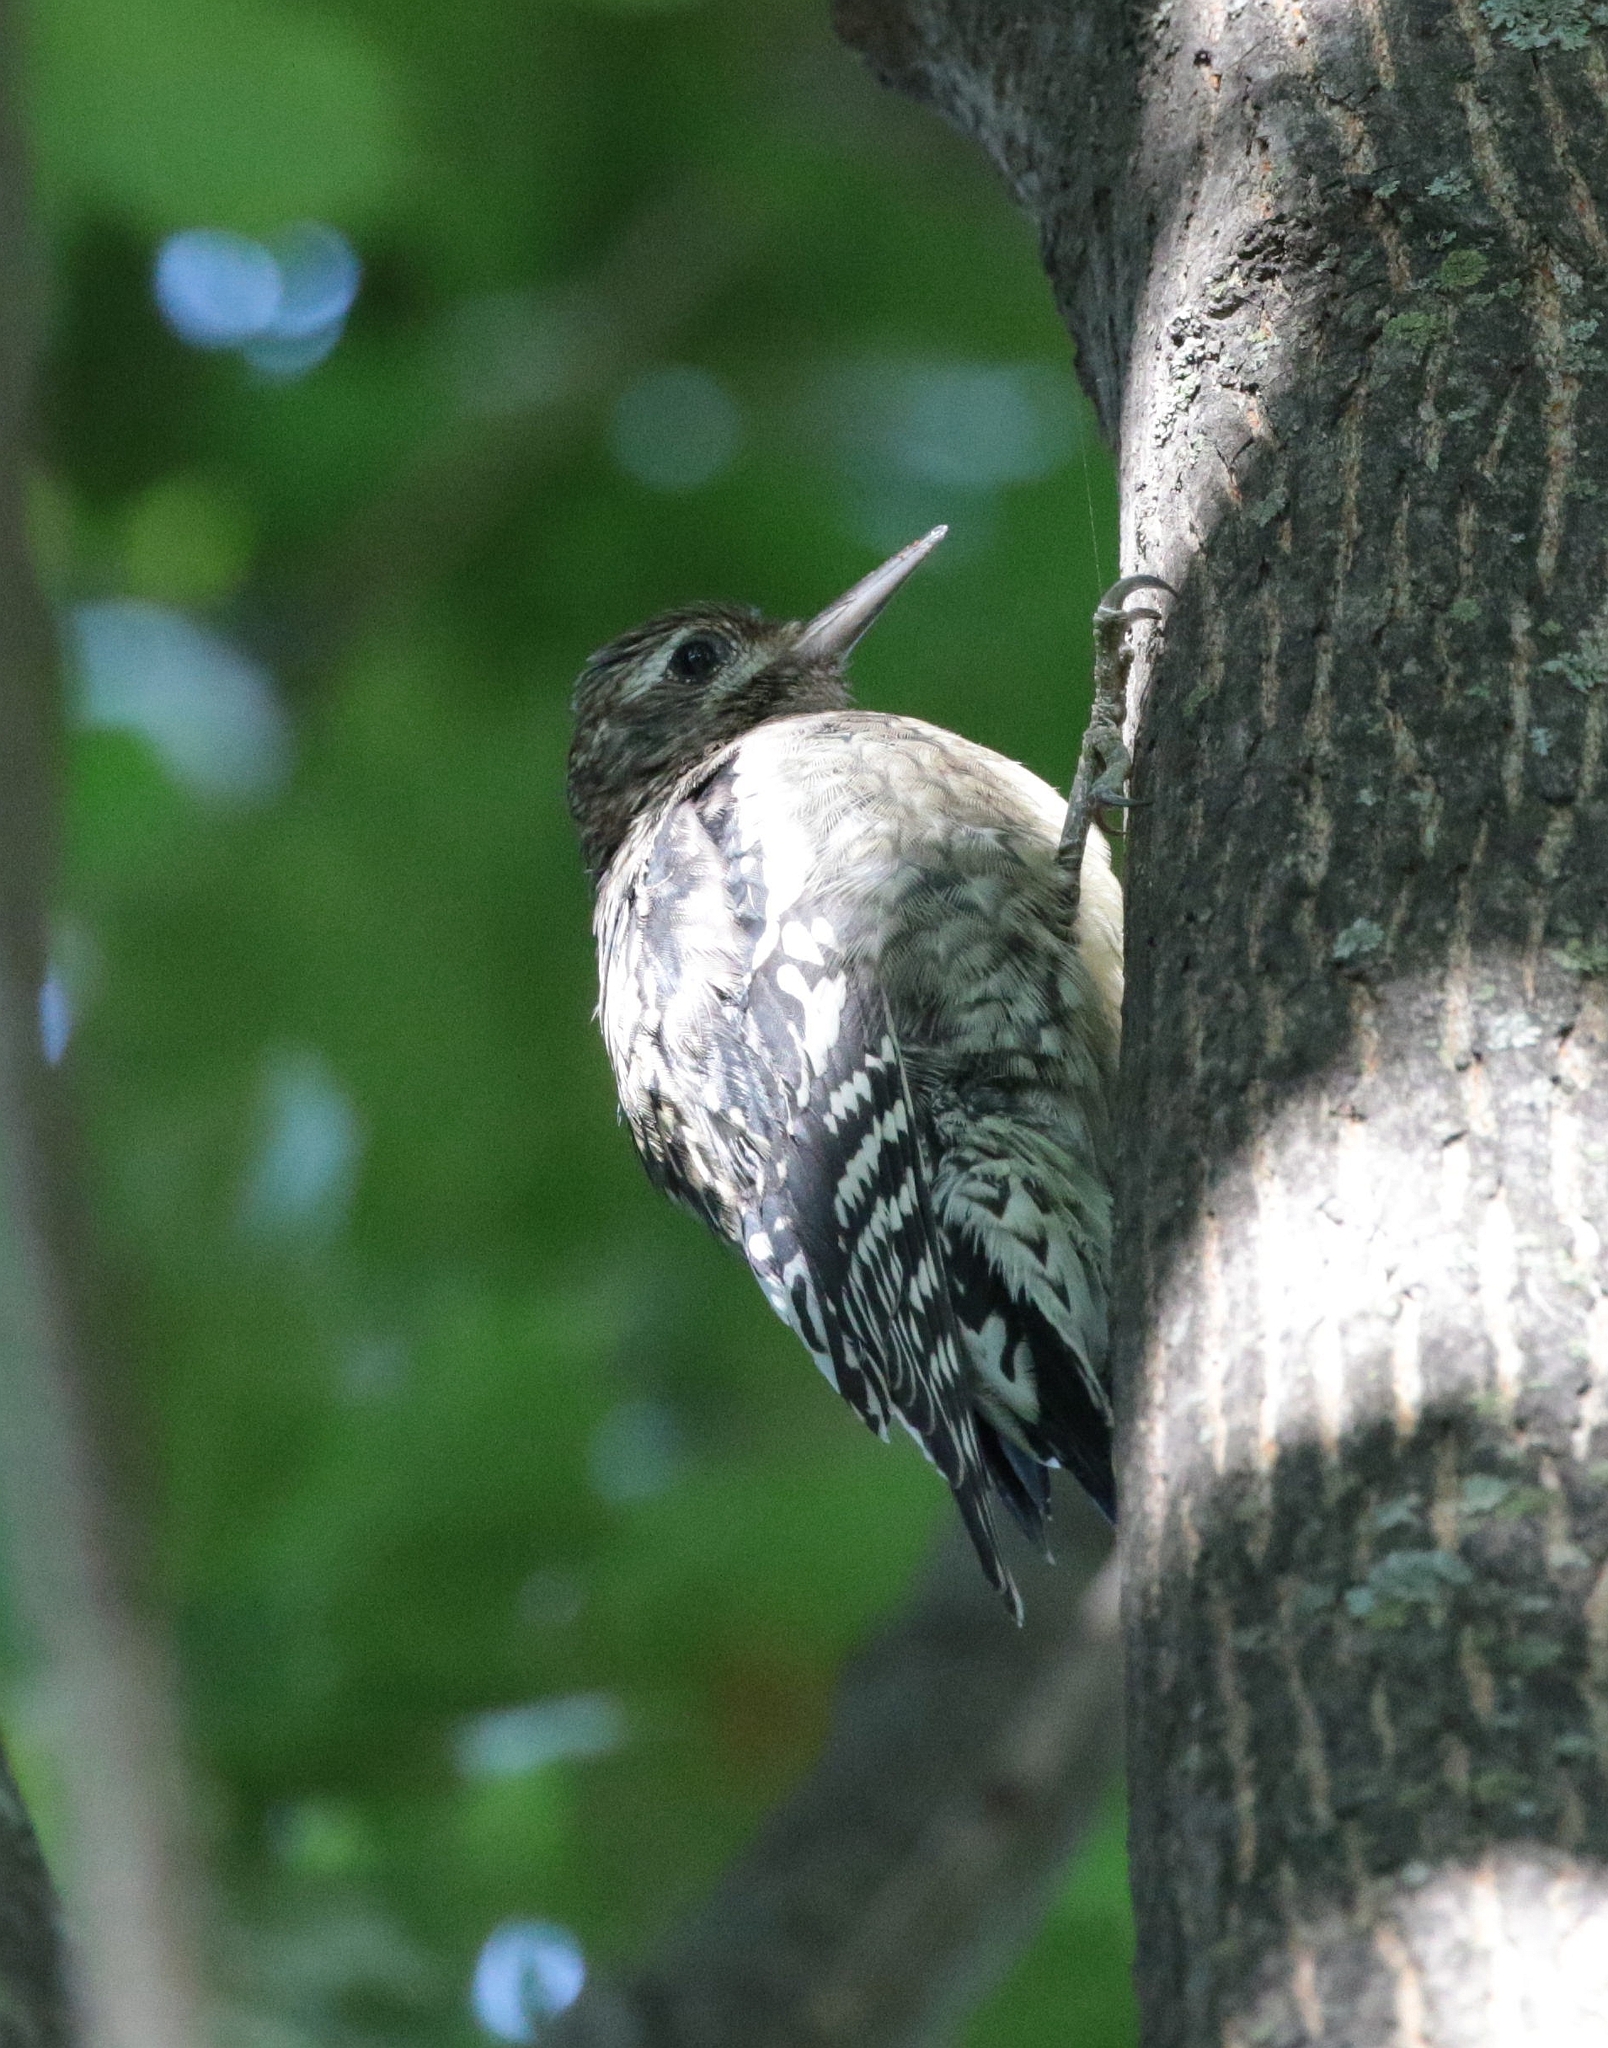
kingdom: Animalia
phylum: Chordata
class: Aves
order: Piciformes
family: Picidae
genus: Sphyrapicus
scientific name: Sphyrapicus varius
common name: Yellow-bellied sapsucker
